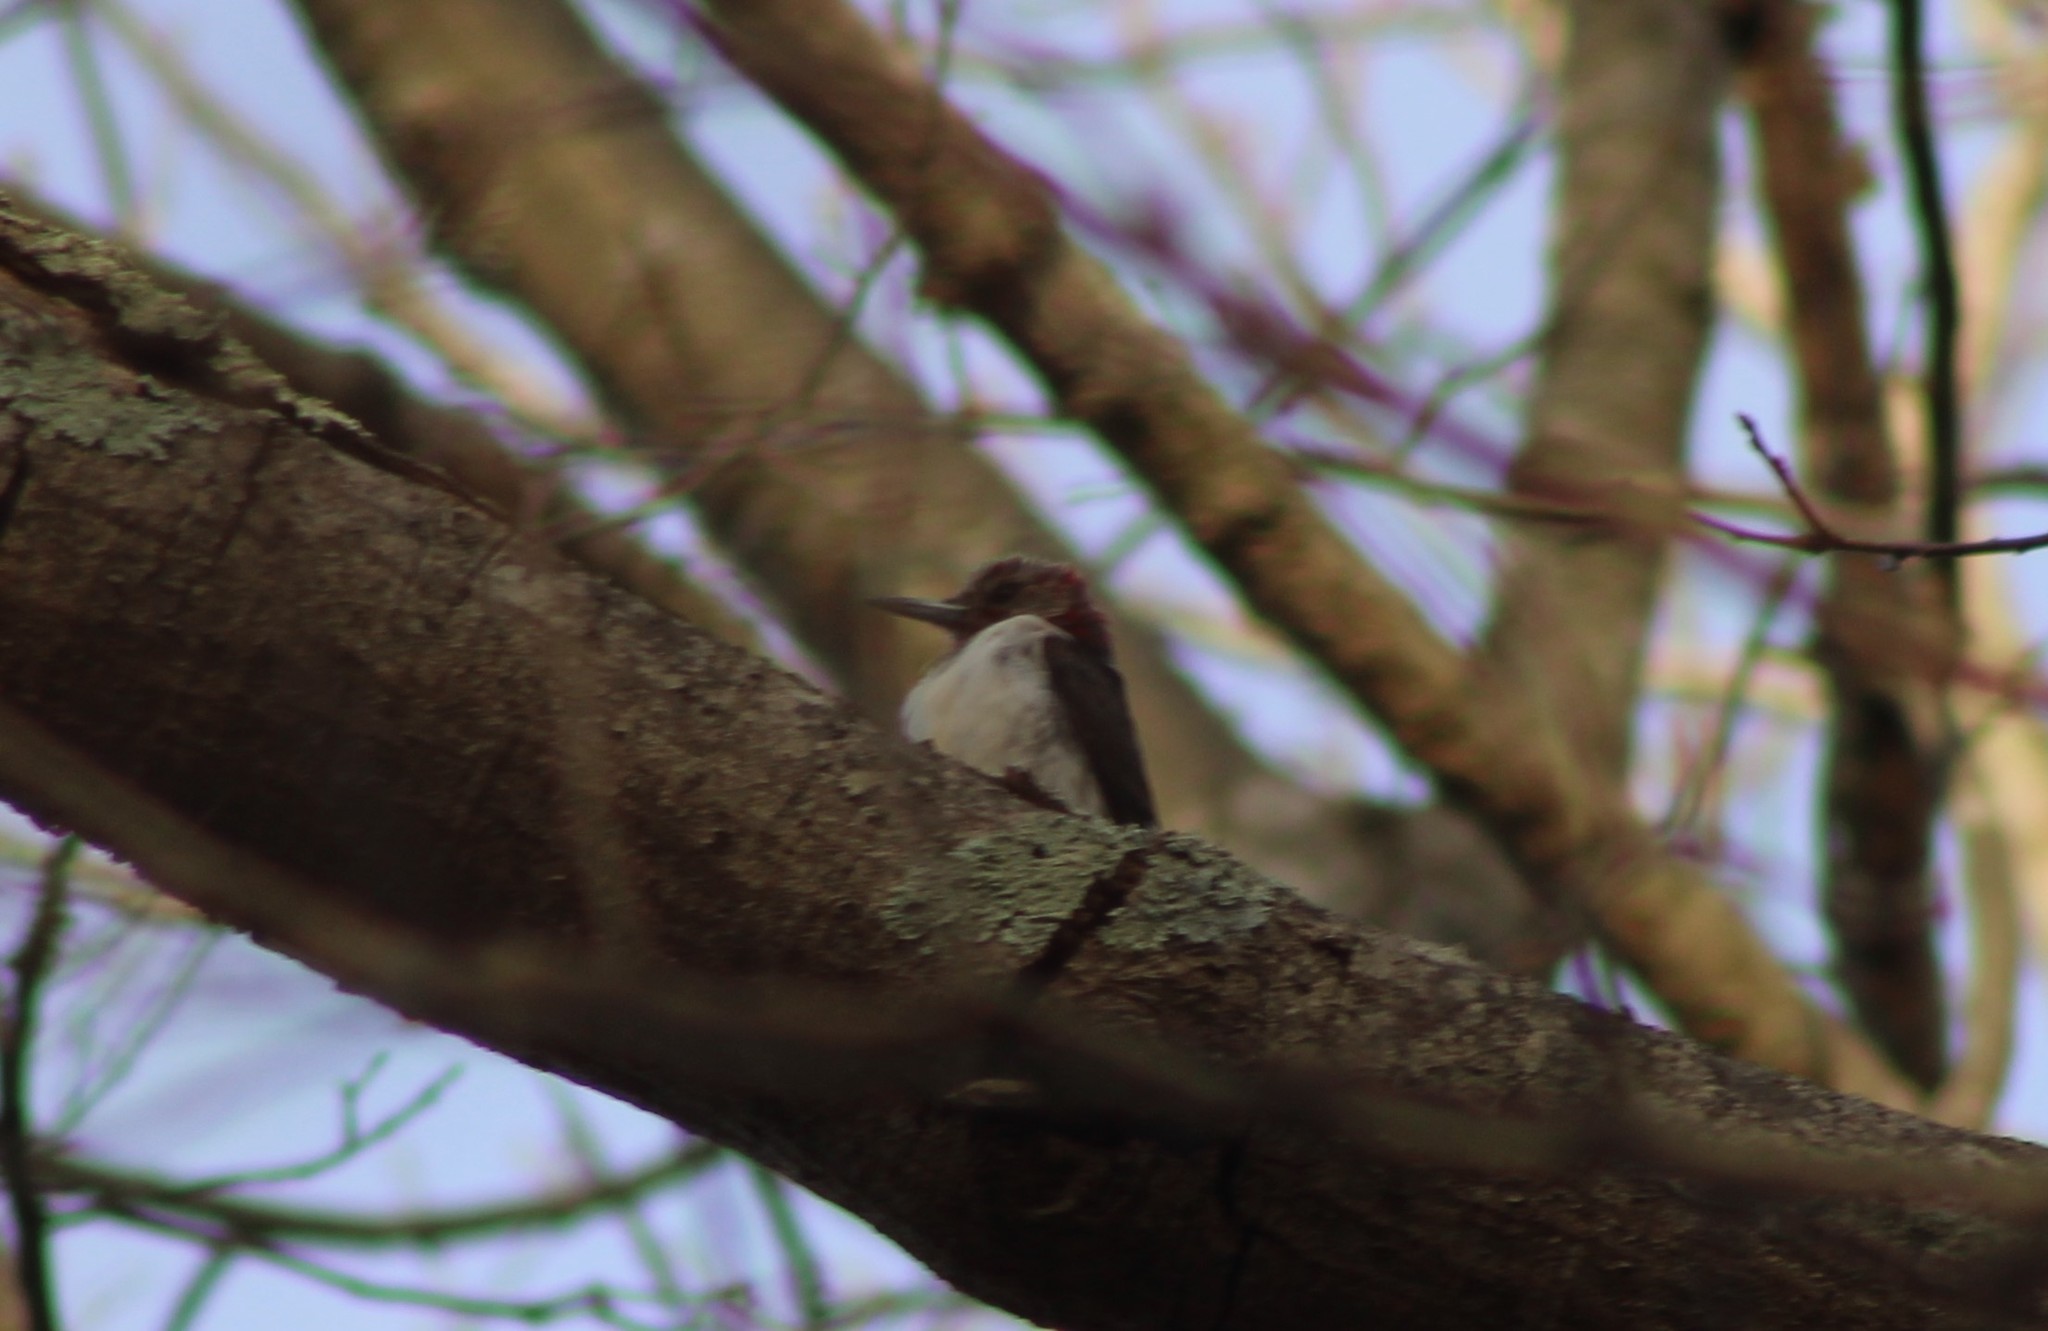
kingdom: Animalia
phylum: Chordata
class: Aves
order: Piciformes
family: Picidae
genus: Melanerpes
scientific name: Melanerpes erythrocephalus
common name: Red-headed woodpecker
